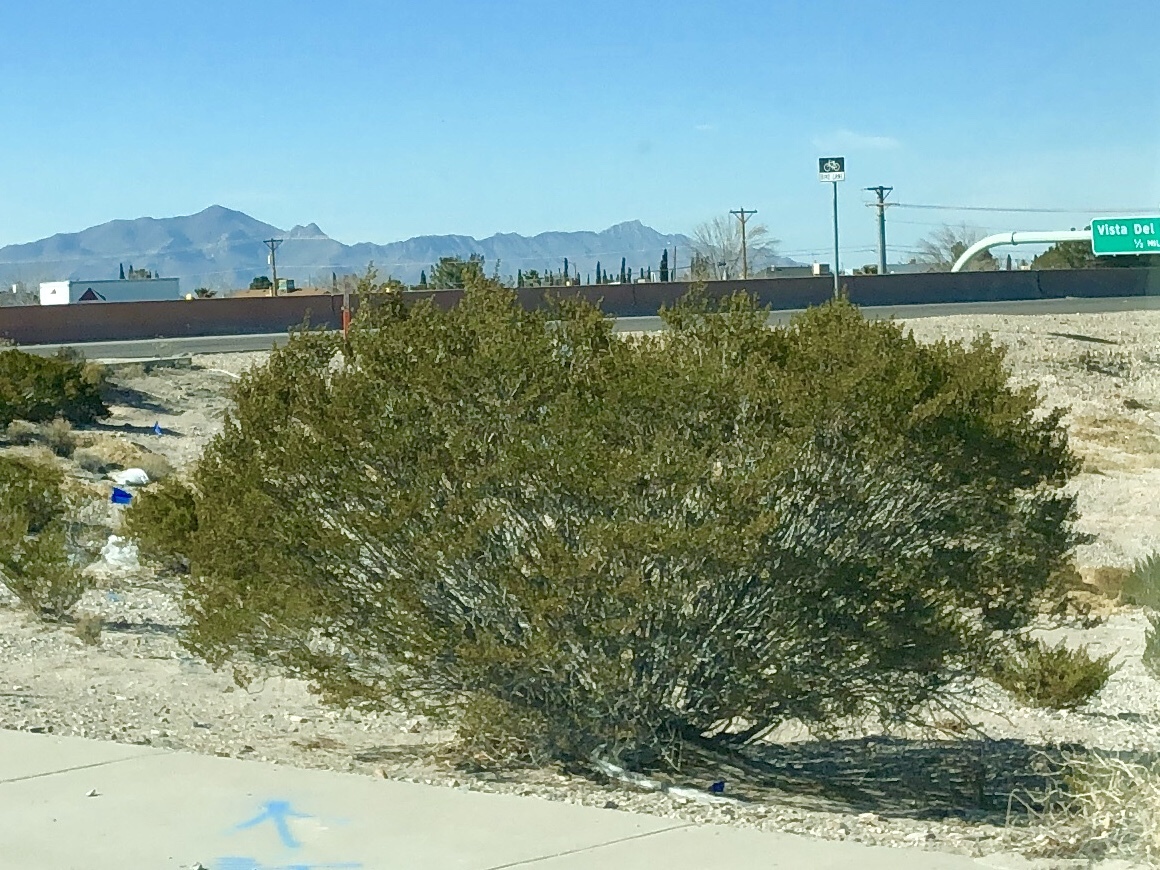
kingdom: Plantae
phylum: Tracheophyta
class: Magnoliopsida
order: Zygophyllales
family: Zygophyllaceae
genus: Larrea
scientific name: Larrea tridentata
